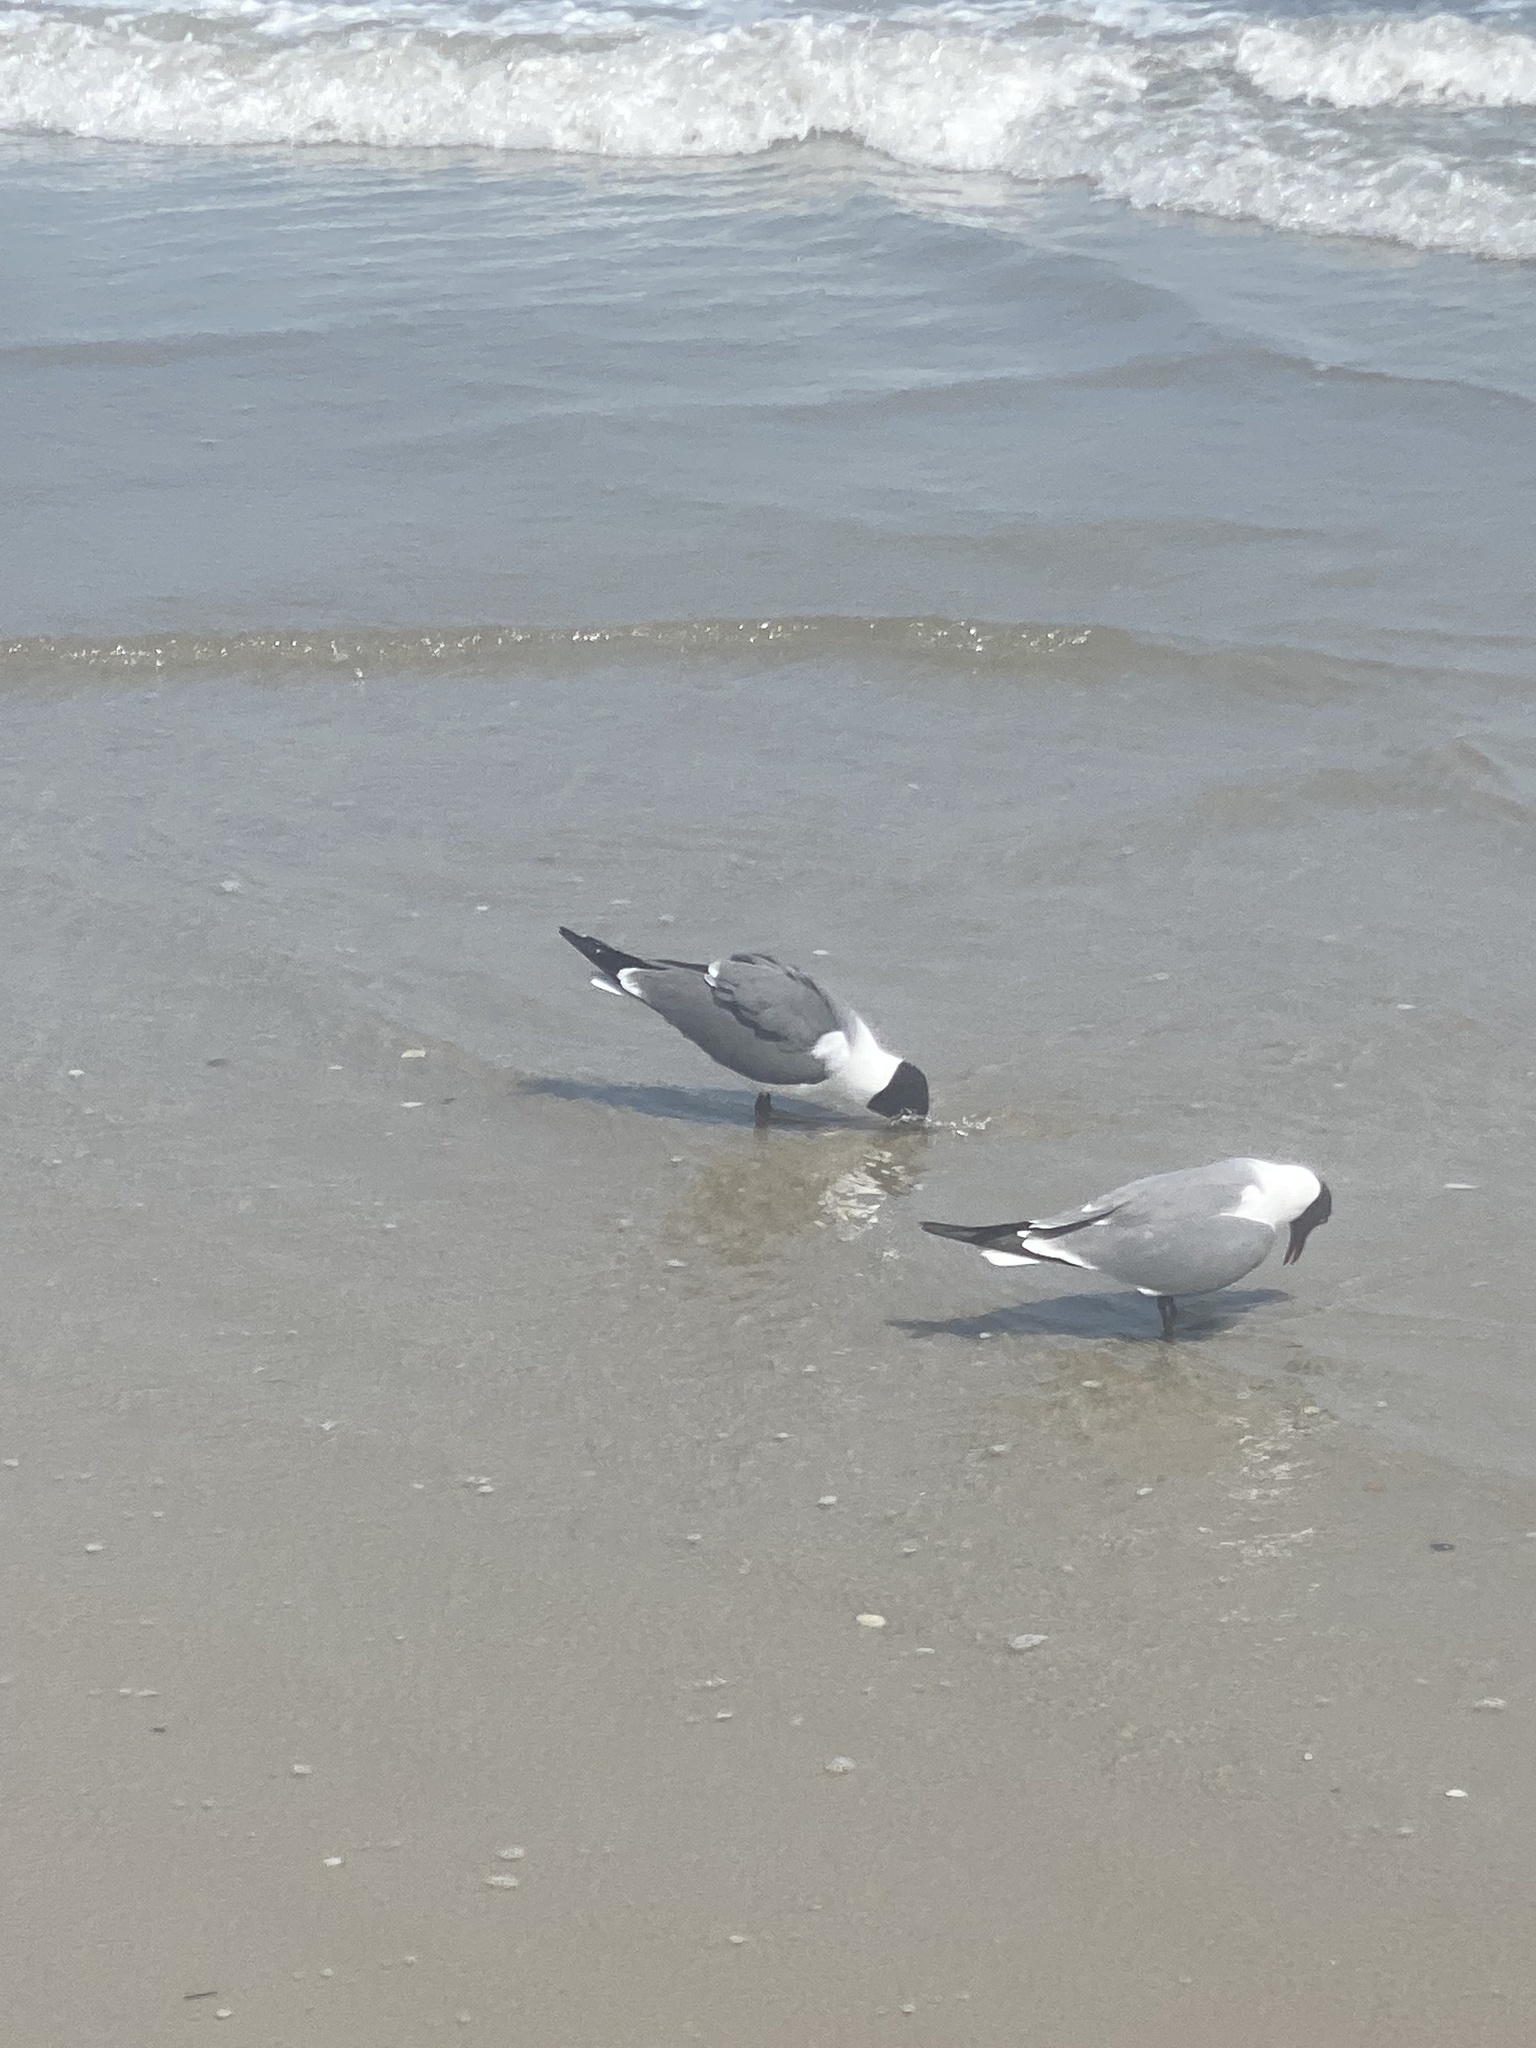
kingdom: Animalia
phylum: Chordata
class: Aves
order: Charadriiformes
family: Laridae
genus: Leucophaeus
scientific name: Leucophaeus atricilla
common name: Laughing gull
